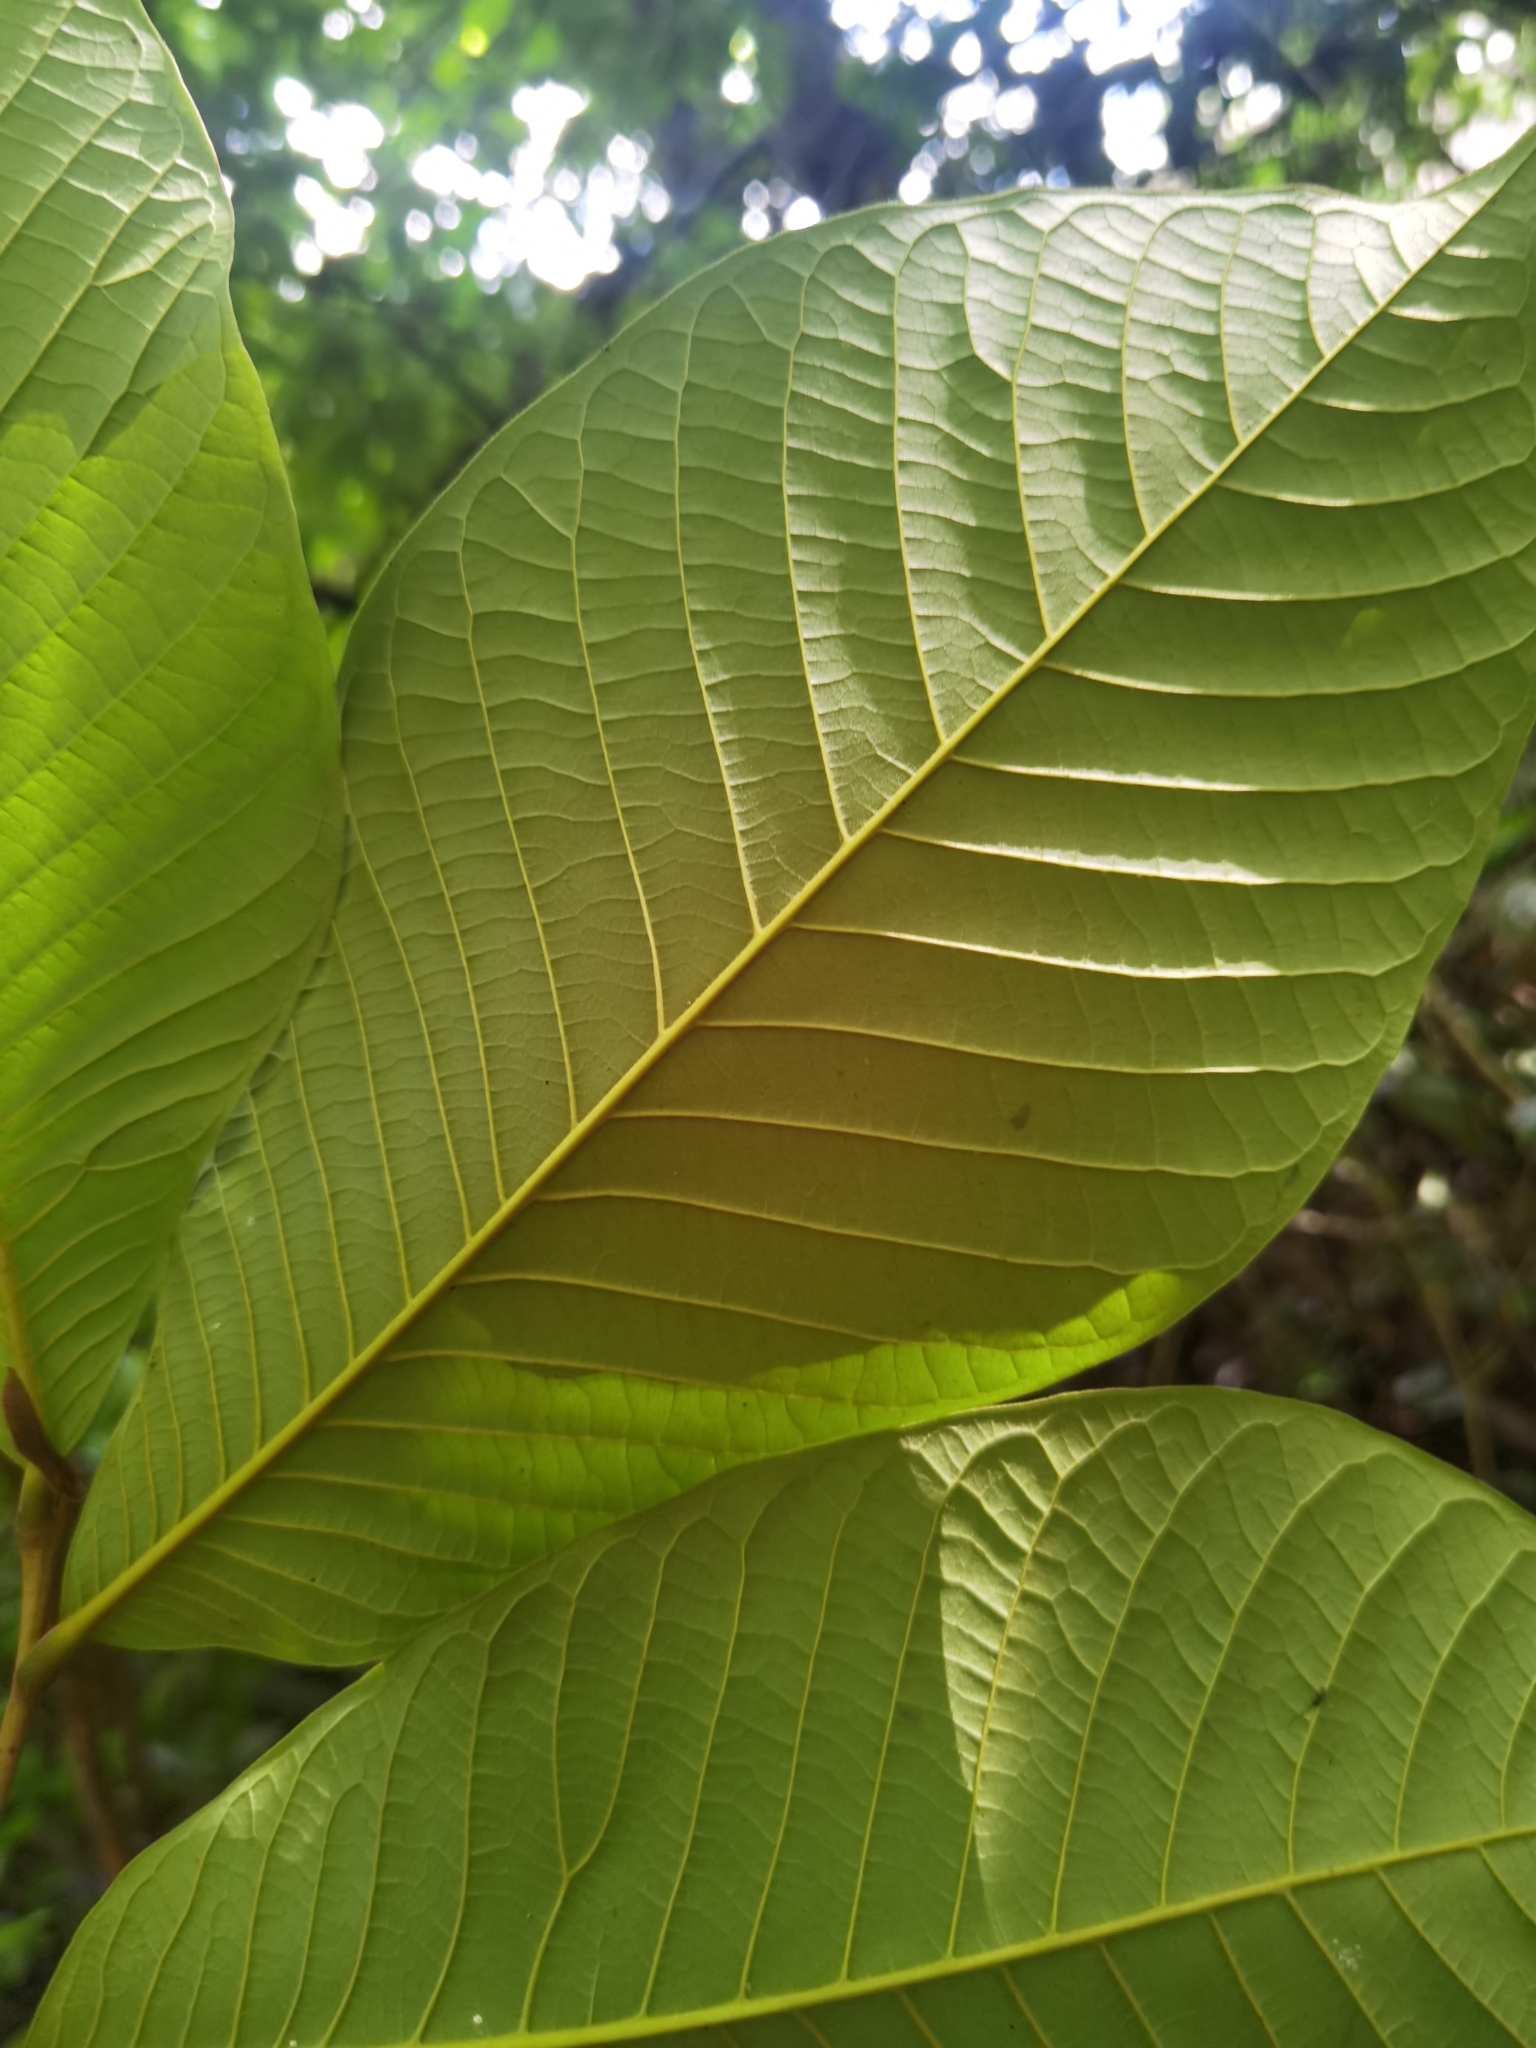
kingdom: Plantae
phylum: Tracheophyta
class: Magnoliopsida
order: Magnoliales
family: Annonaceae
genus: Annona
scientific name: Annona purpurea
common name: Negrohead
